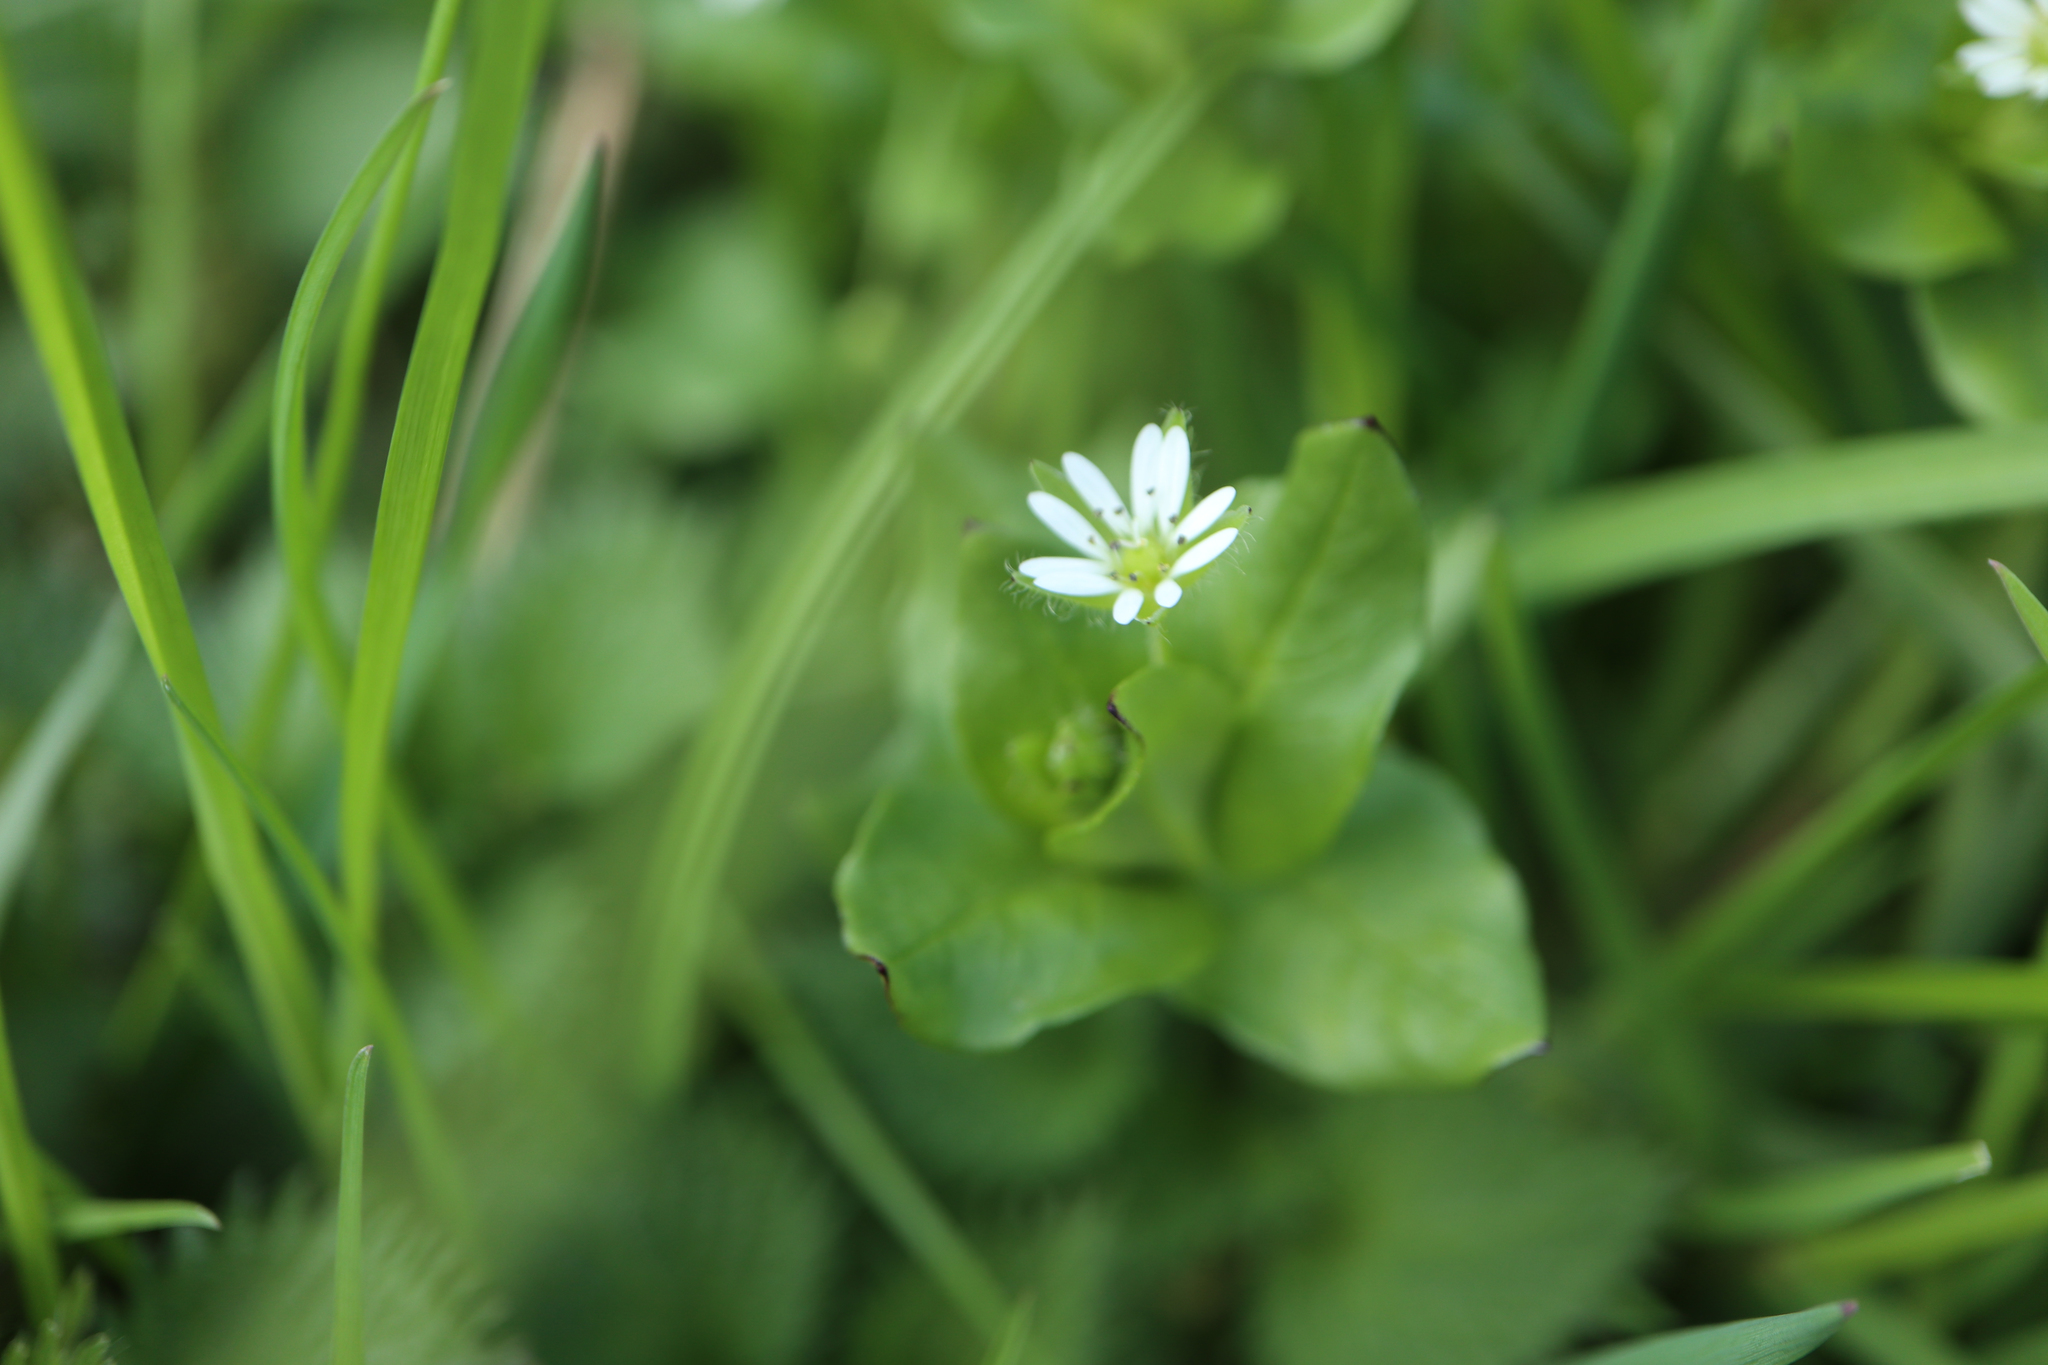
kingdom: Plantae
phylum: Tracheophyta
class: Magnoliopsida
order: Caryophyllales
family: Caryophyllaceae
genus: Stellaria
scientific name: Stellaria media
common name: Common chickweed
